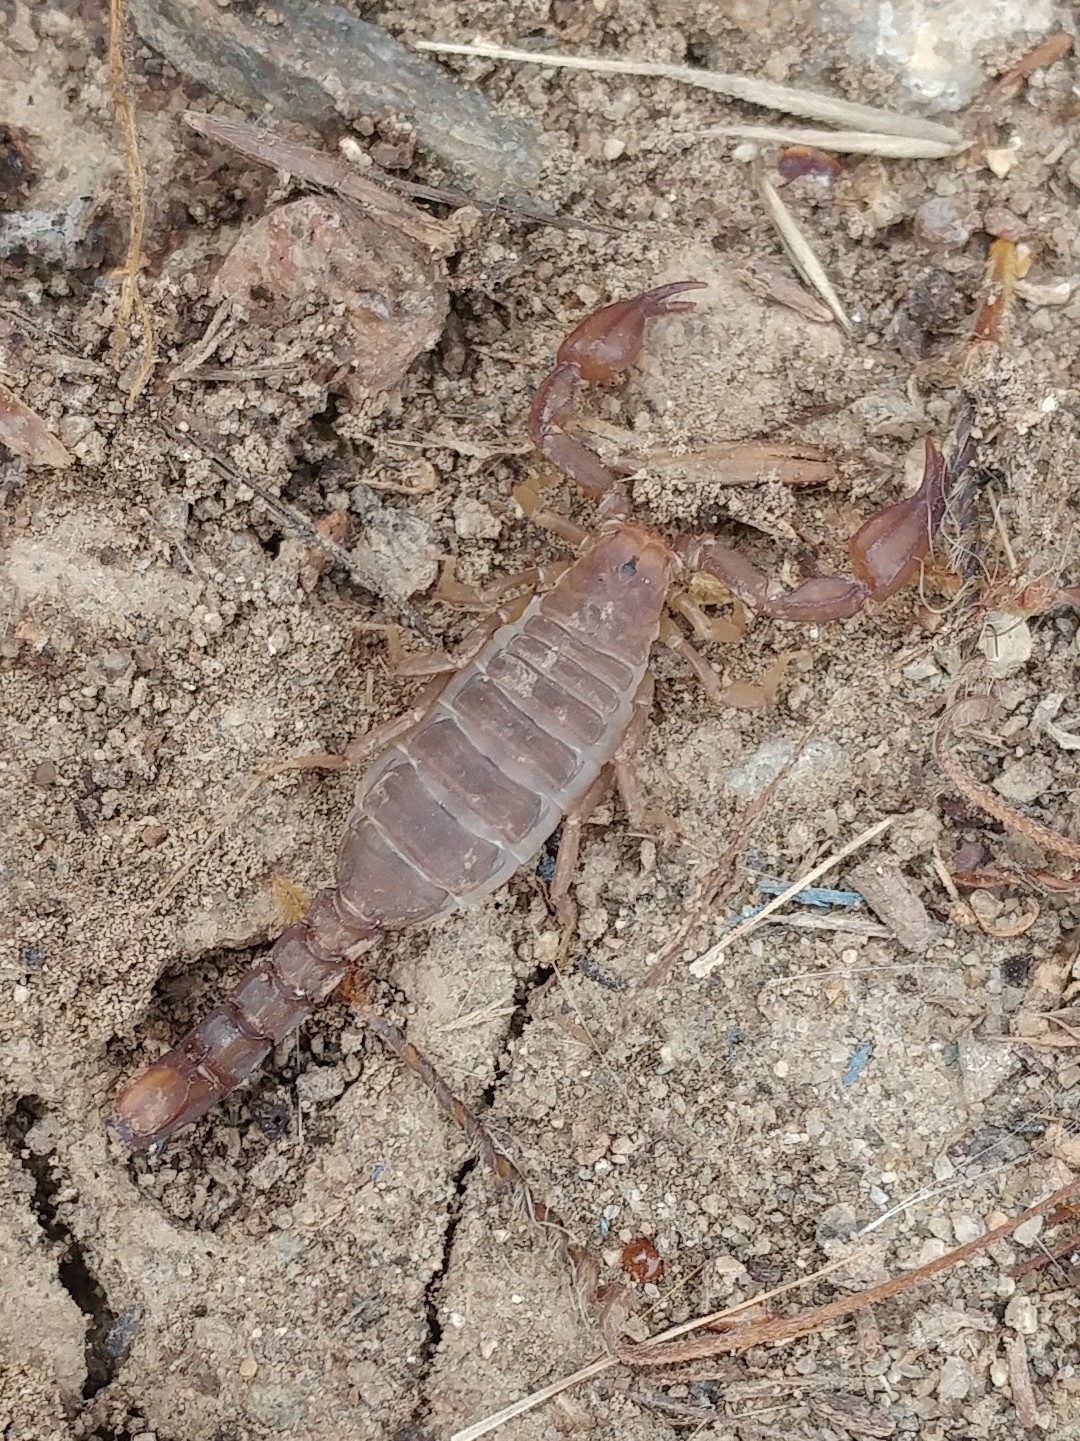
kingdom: Animalia
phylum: Arthropoda
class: Arachnida
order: Scorpiones
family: Vaejovidae
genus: Catalinia
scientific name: Catalinia minima
